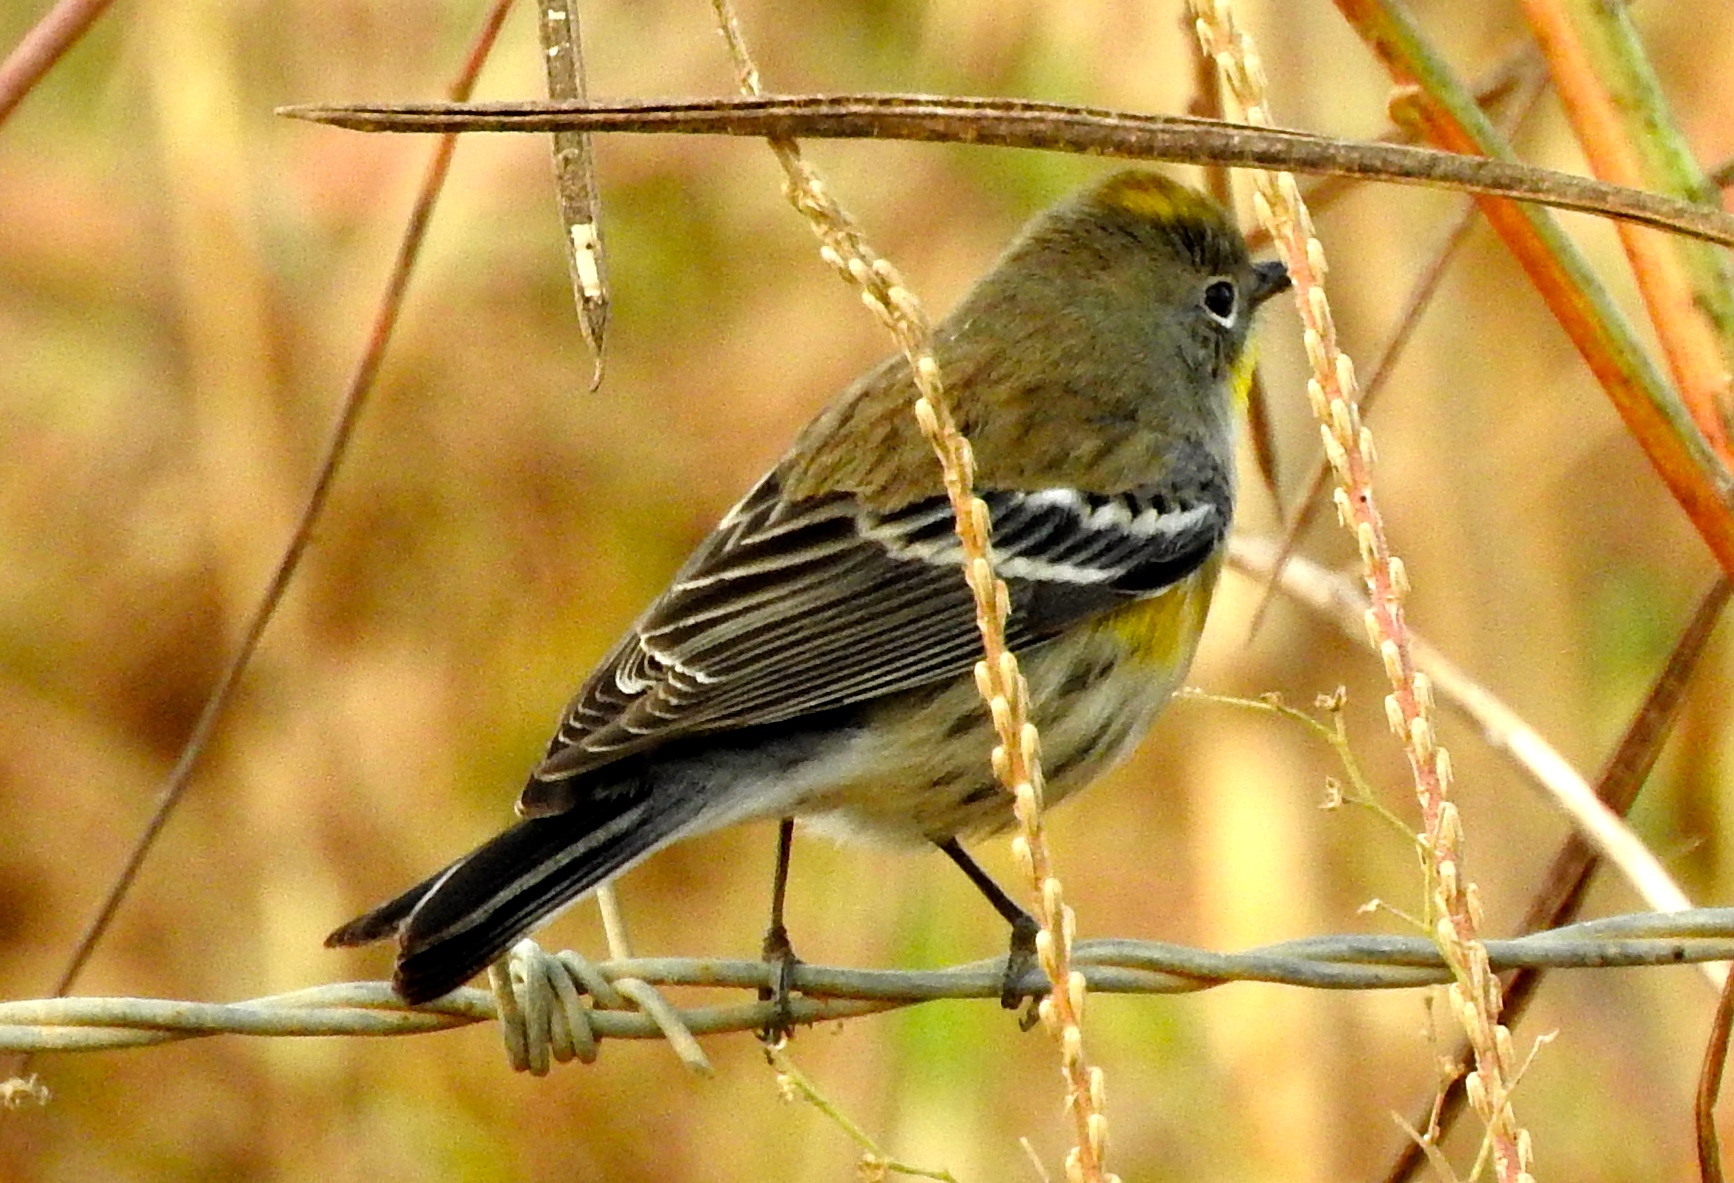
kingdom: Animalia
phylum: Chordata
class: Aves
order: Passeriformes
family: Parulidae
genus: Setophaga
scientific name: Setophaga auduboni
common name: Audubon's warbler
